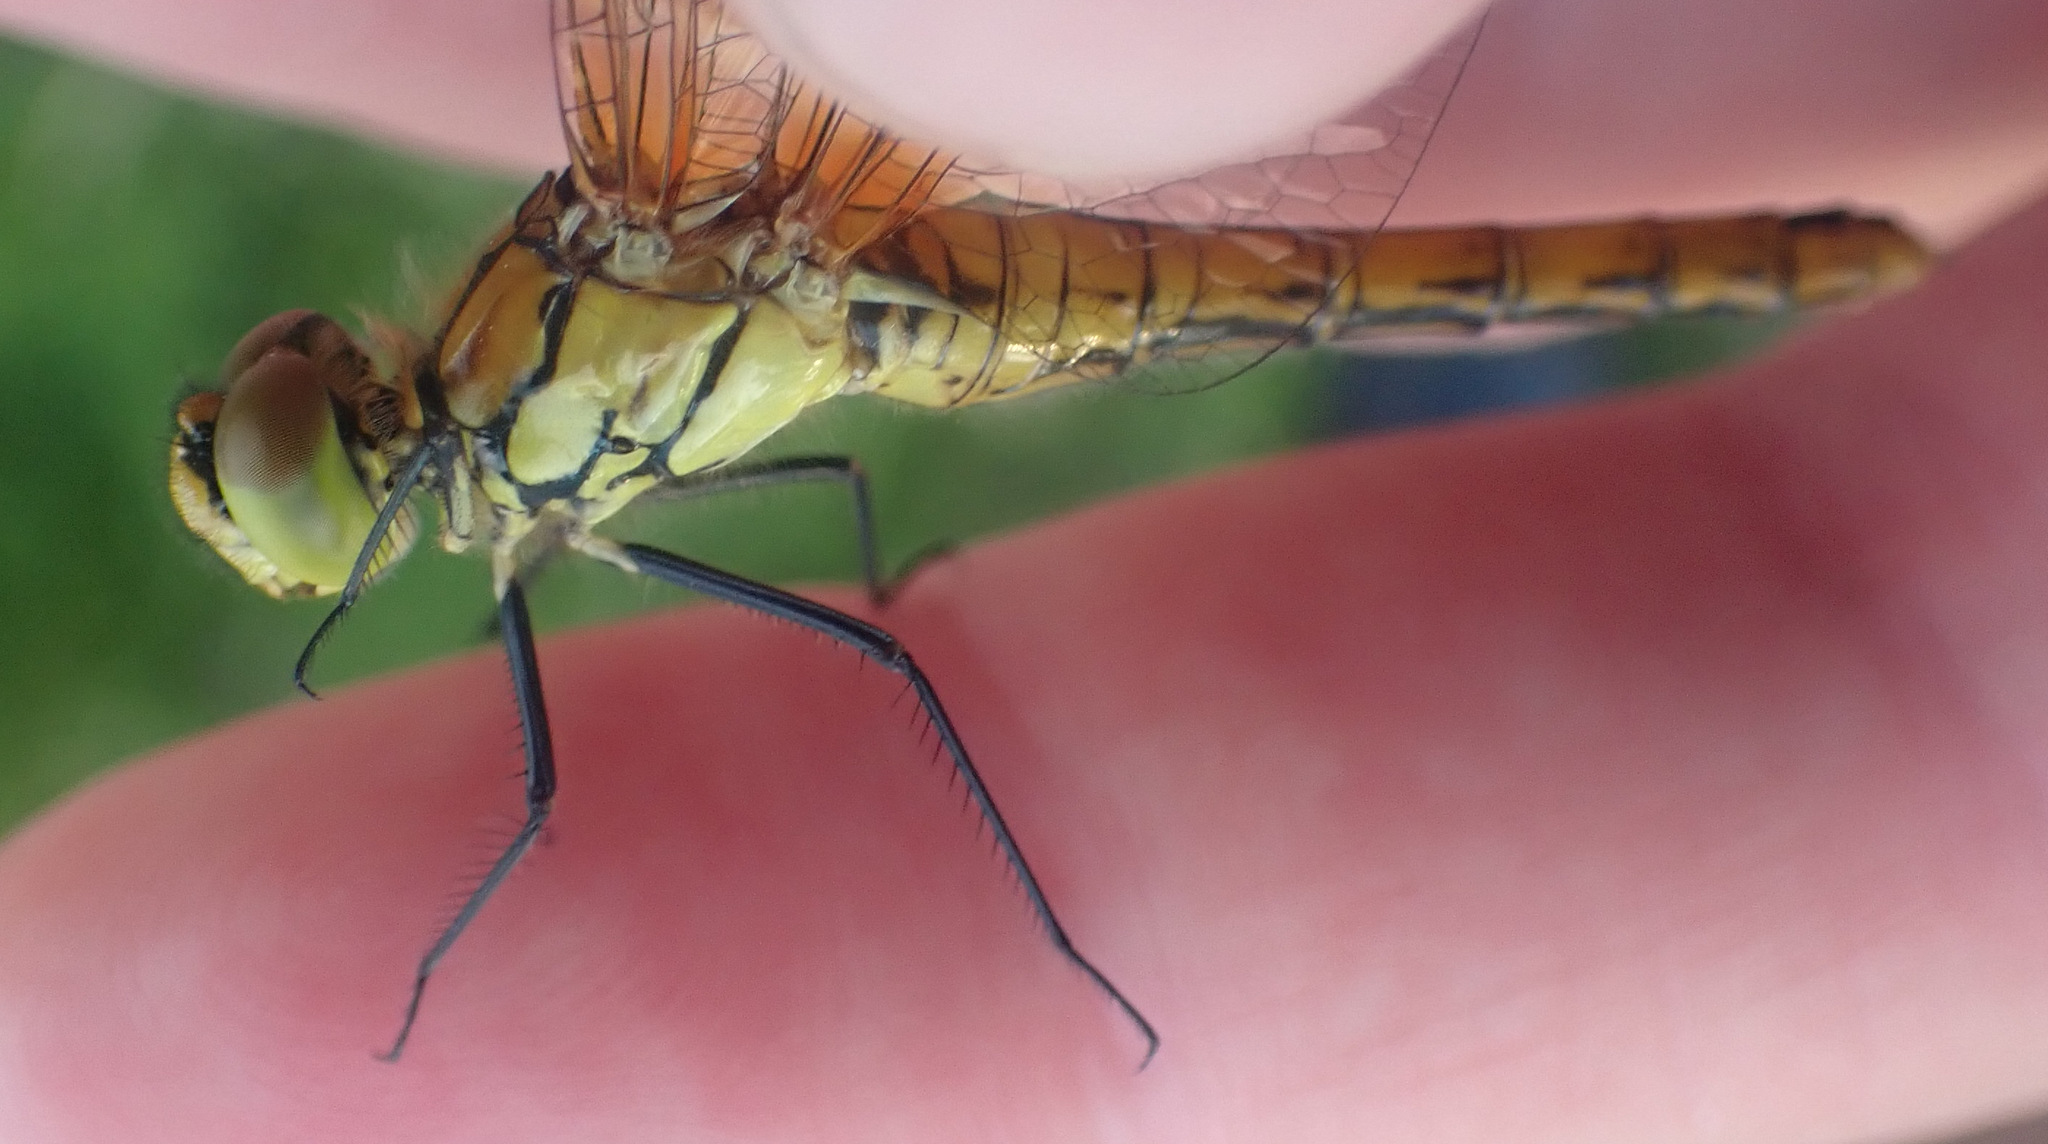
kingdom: Animalia
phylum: Arthropoda
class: Insecta
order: Odonata
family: Libellulidae
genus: Sympetrum
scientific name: Sympetrum sanguineum
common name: Ruddy darter
